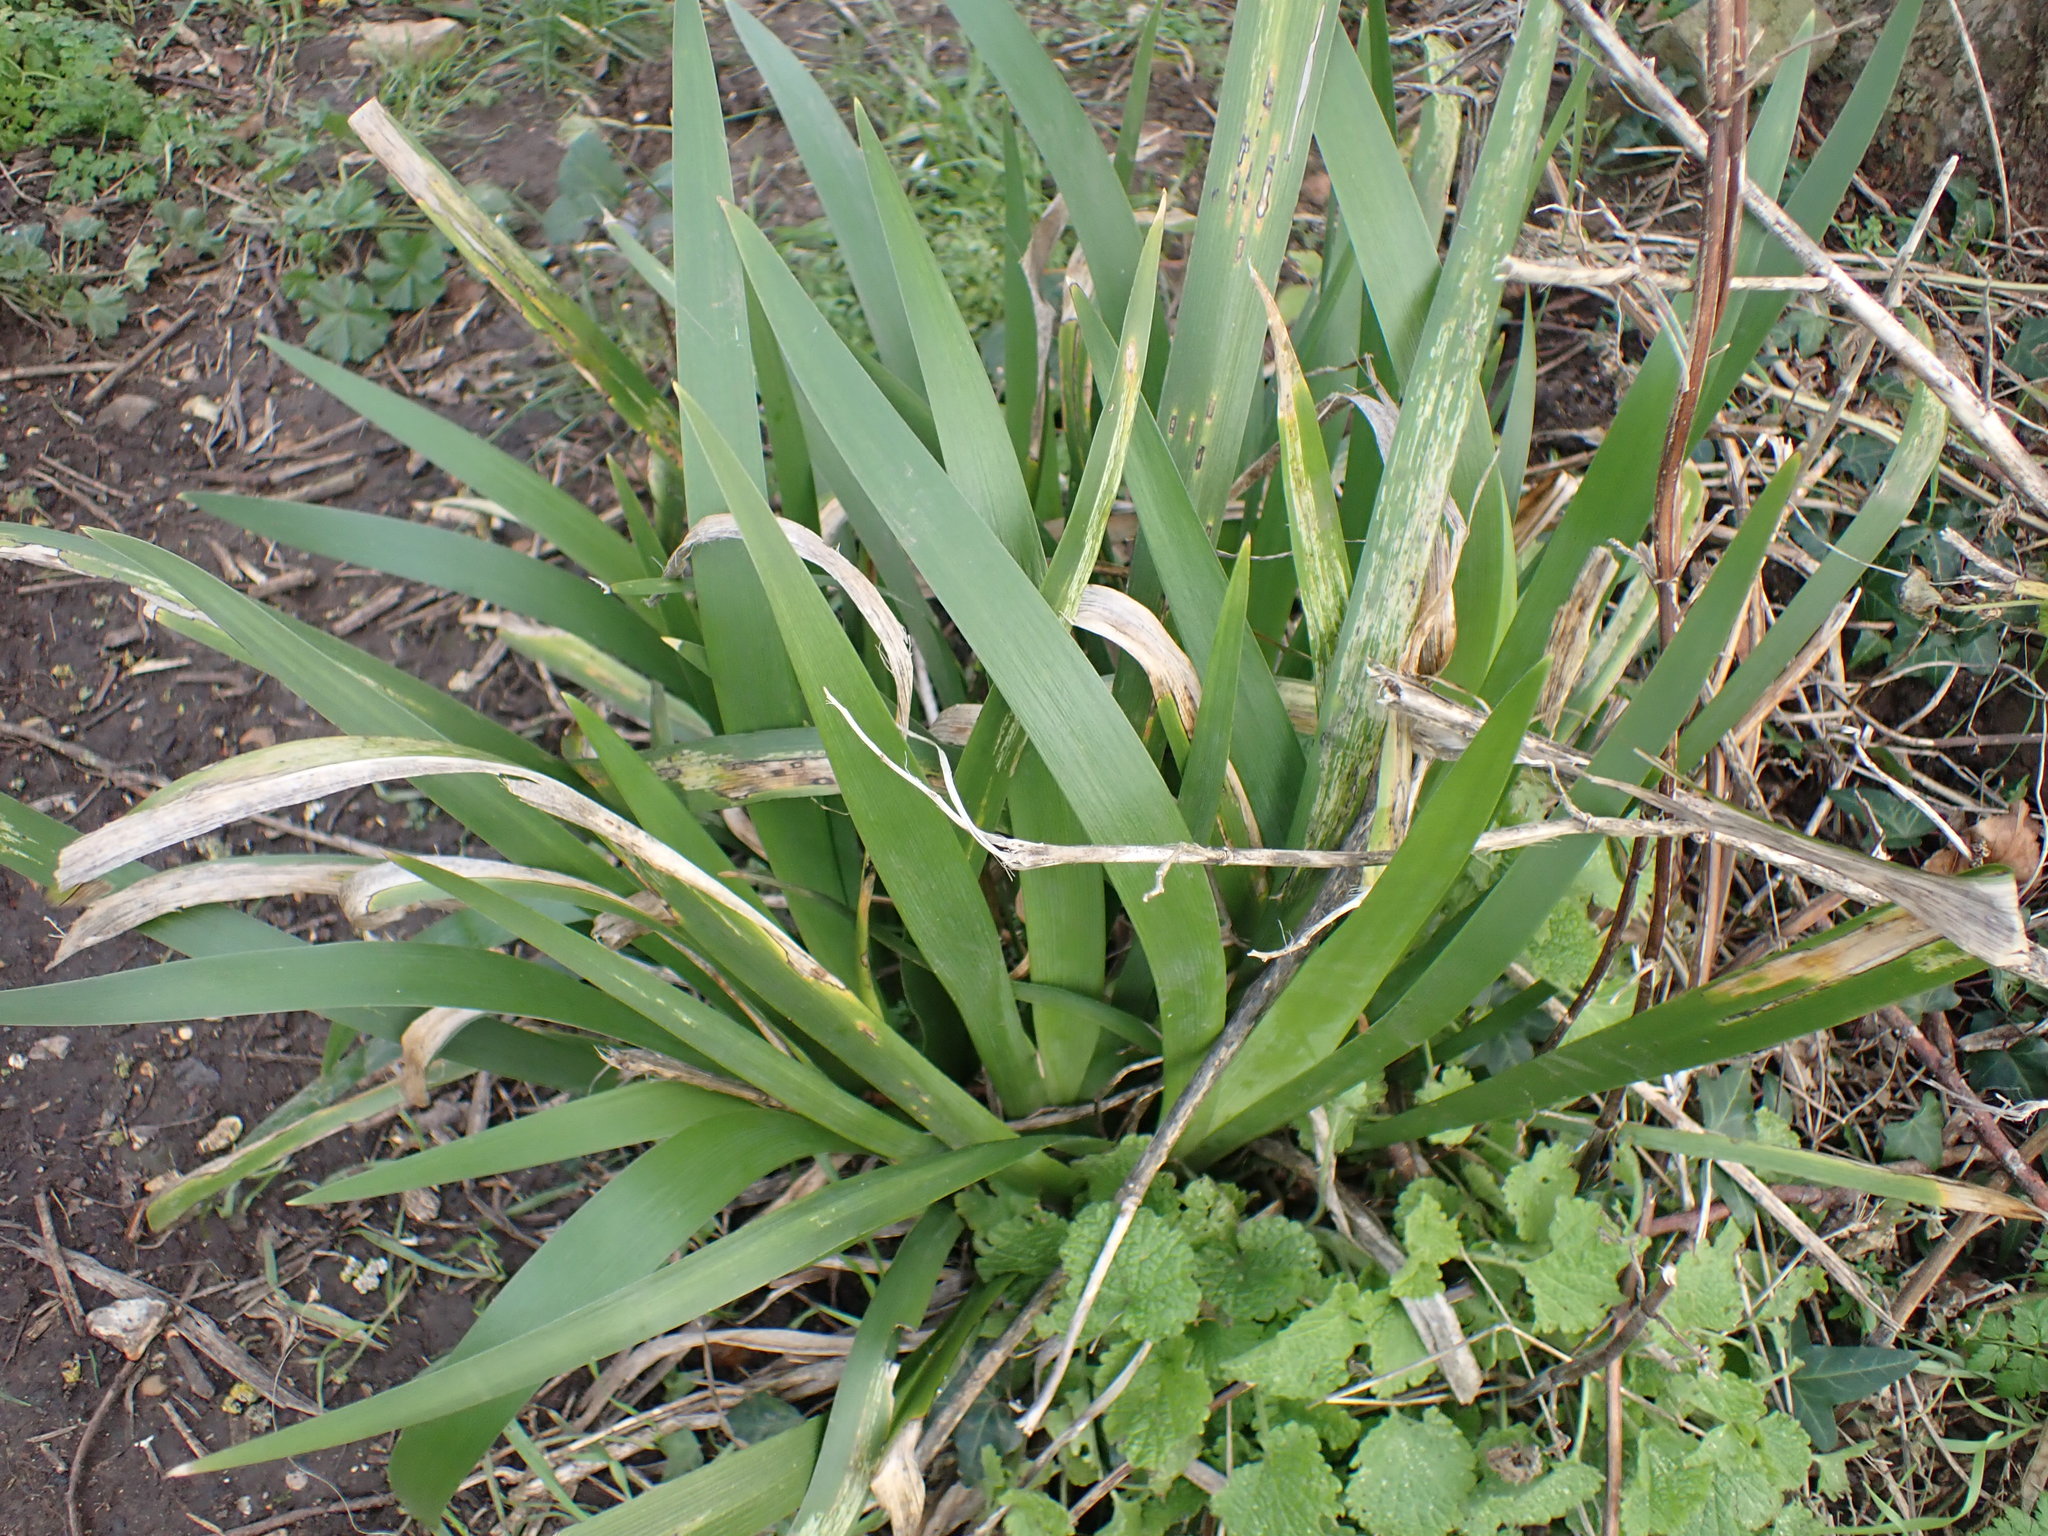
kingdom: Plantae
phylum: Tracheophyta
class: Liliopsida
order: Asparagales
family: Iridaceae
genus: Iris
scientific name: Iris foetidissima
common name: Stinking iris
